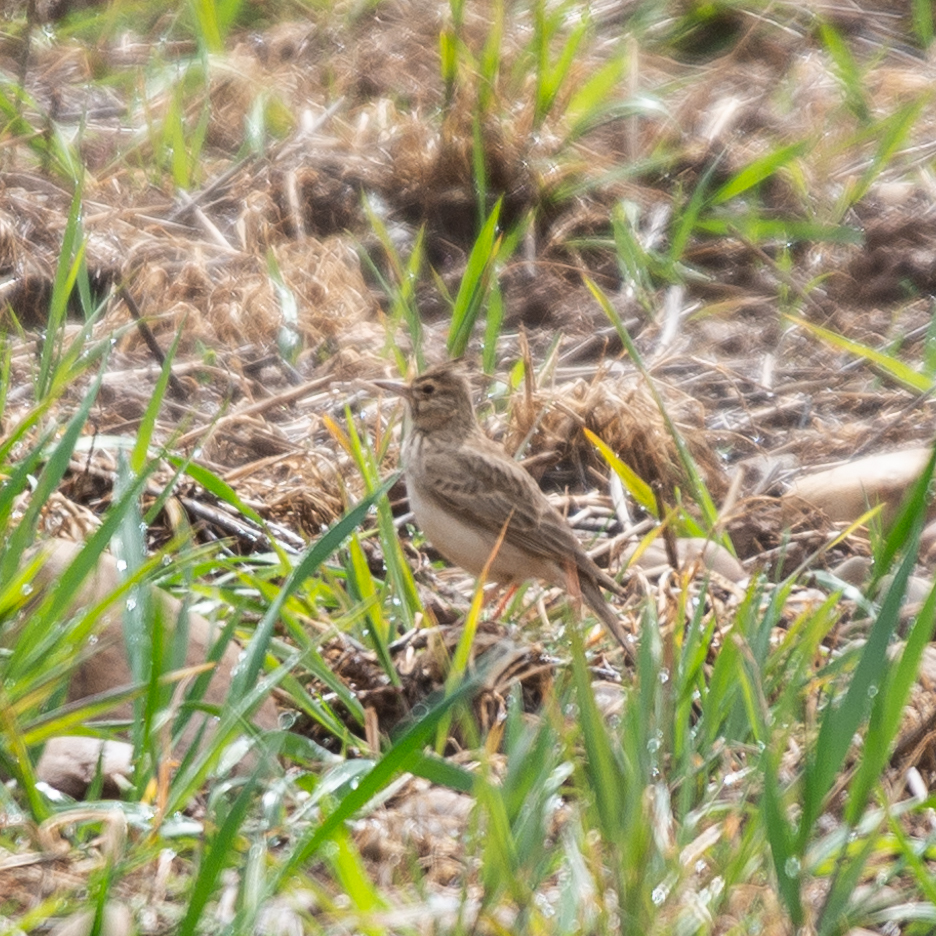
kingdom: Animalia
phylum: Chordata
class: Aves
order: Passeriformes
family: Alaudidae
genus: Galerida
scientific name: Galerida cristata
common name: Crested lark
